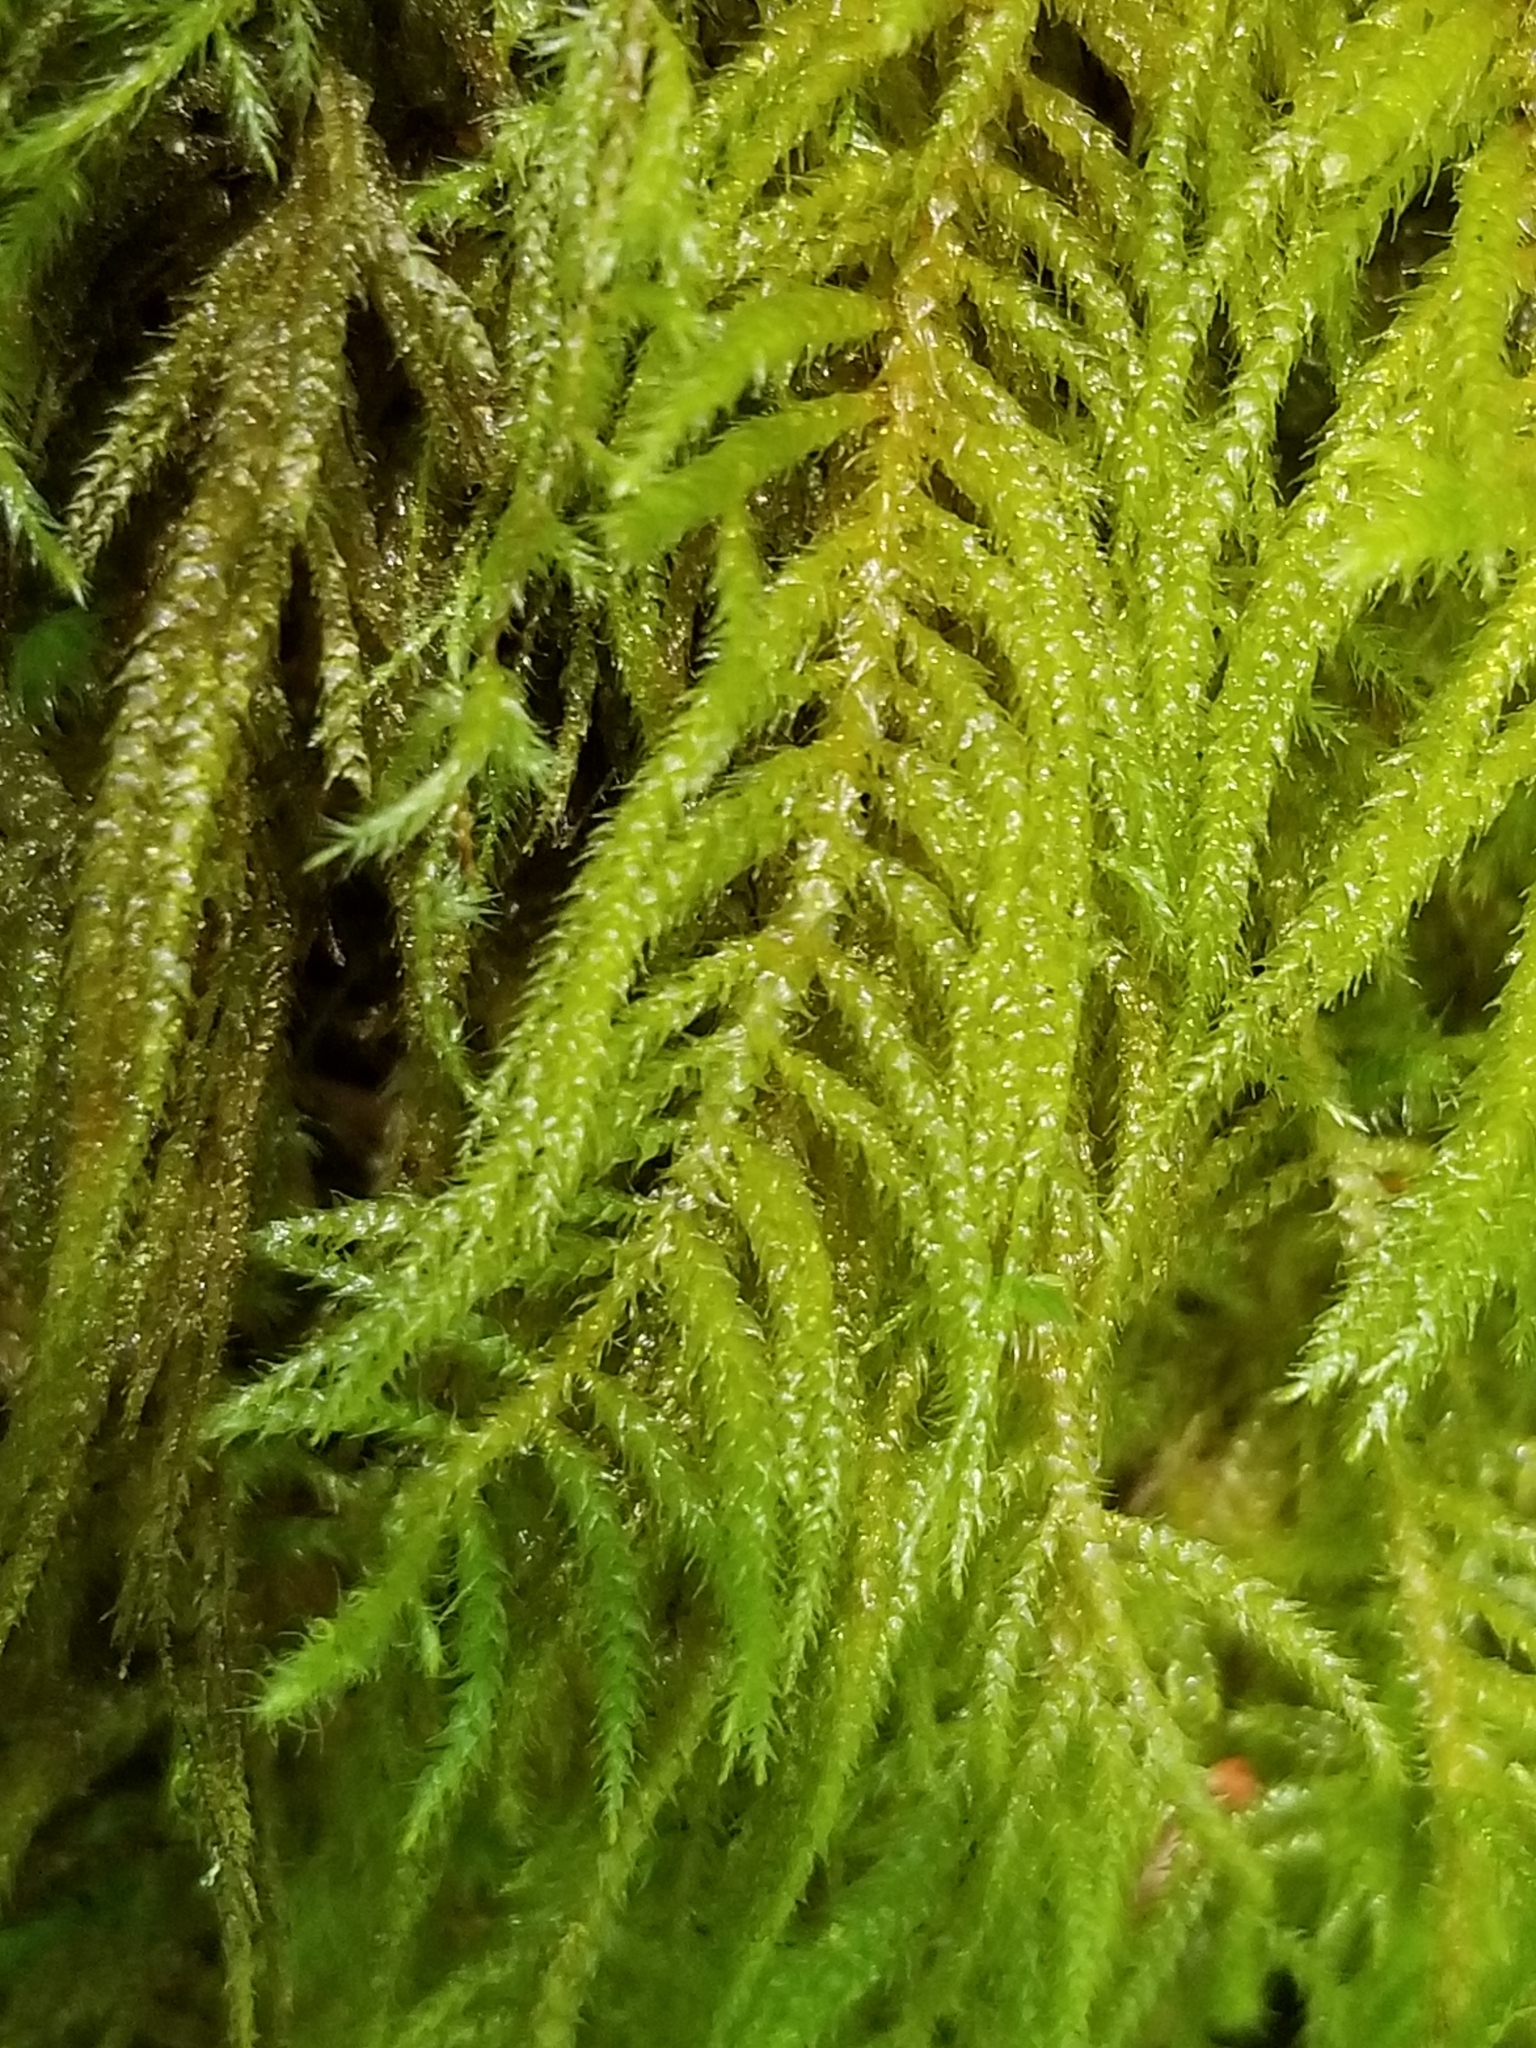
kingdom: Plantae
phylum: Bryophyta
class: Bryopsida
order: Hypnales
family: Brachytheciaceae
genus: Kindbergia
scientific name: Kindbergia oregana
